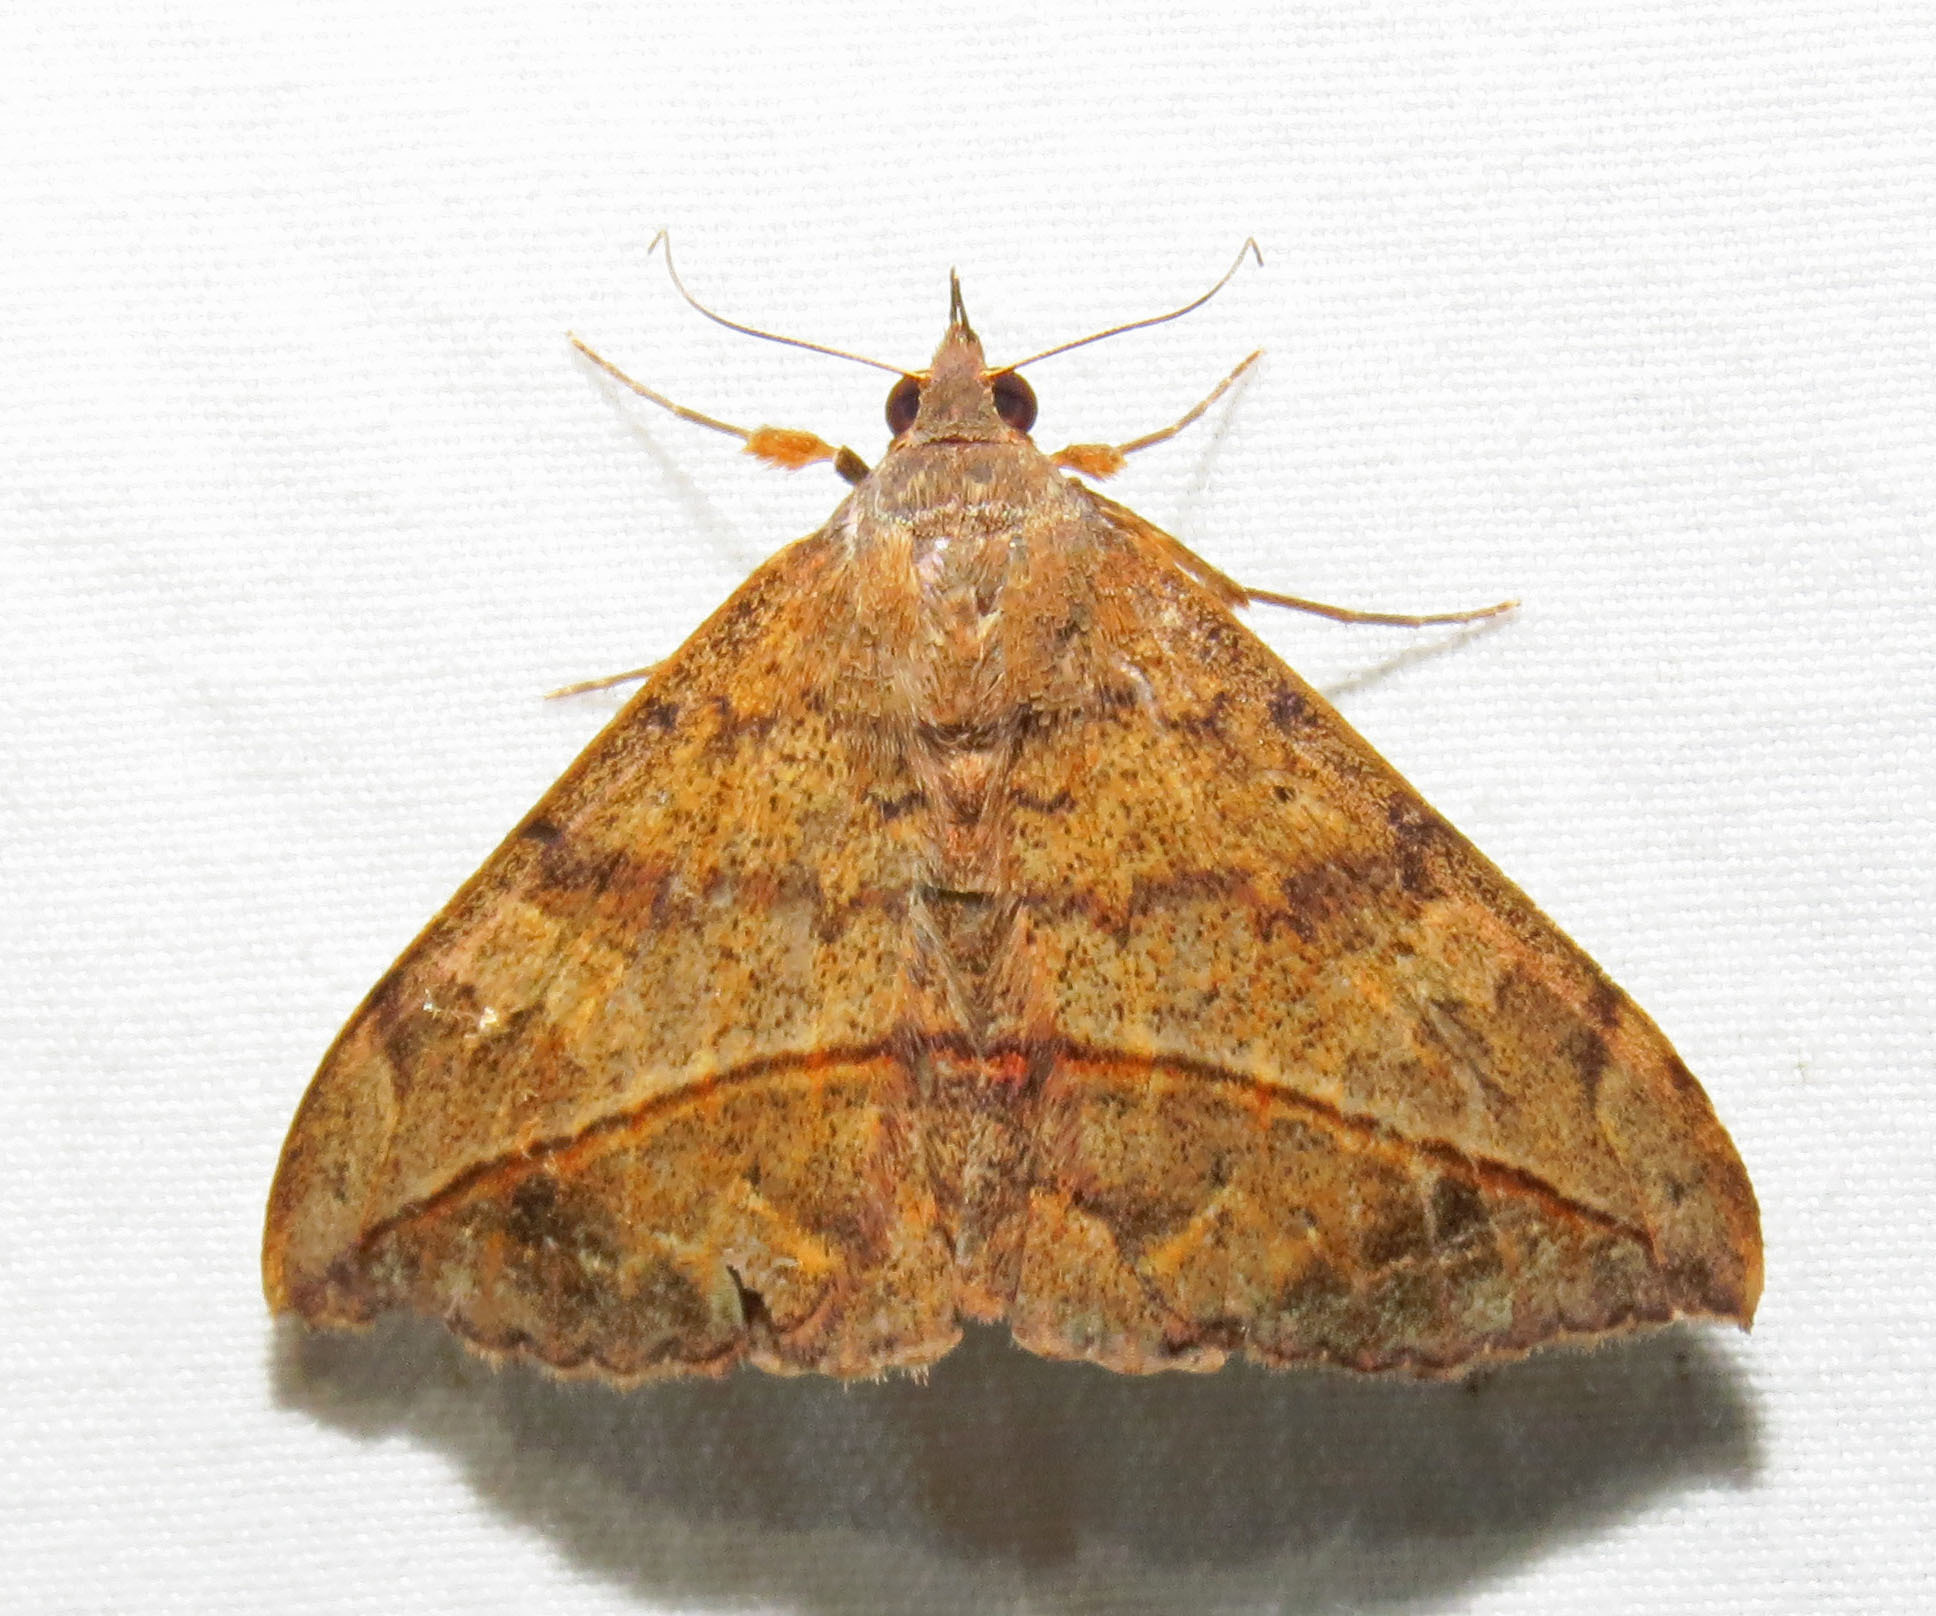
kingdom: Animalia
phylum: Arthropoda
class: Insecta
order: Lepidoptera
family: Erebidae
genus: Anticarsia
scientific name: Anticarsia gemmatalis
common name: Cutworm moth
